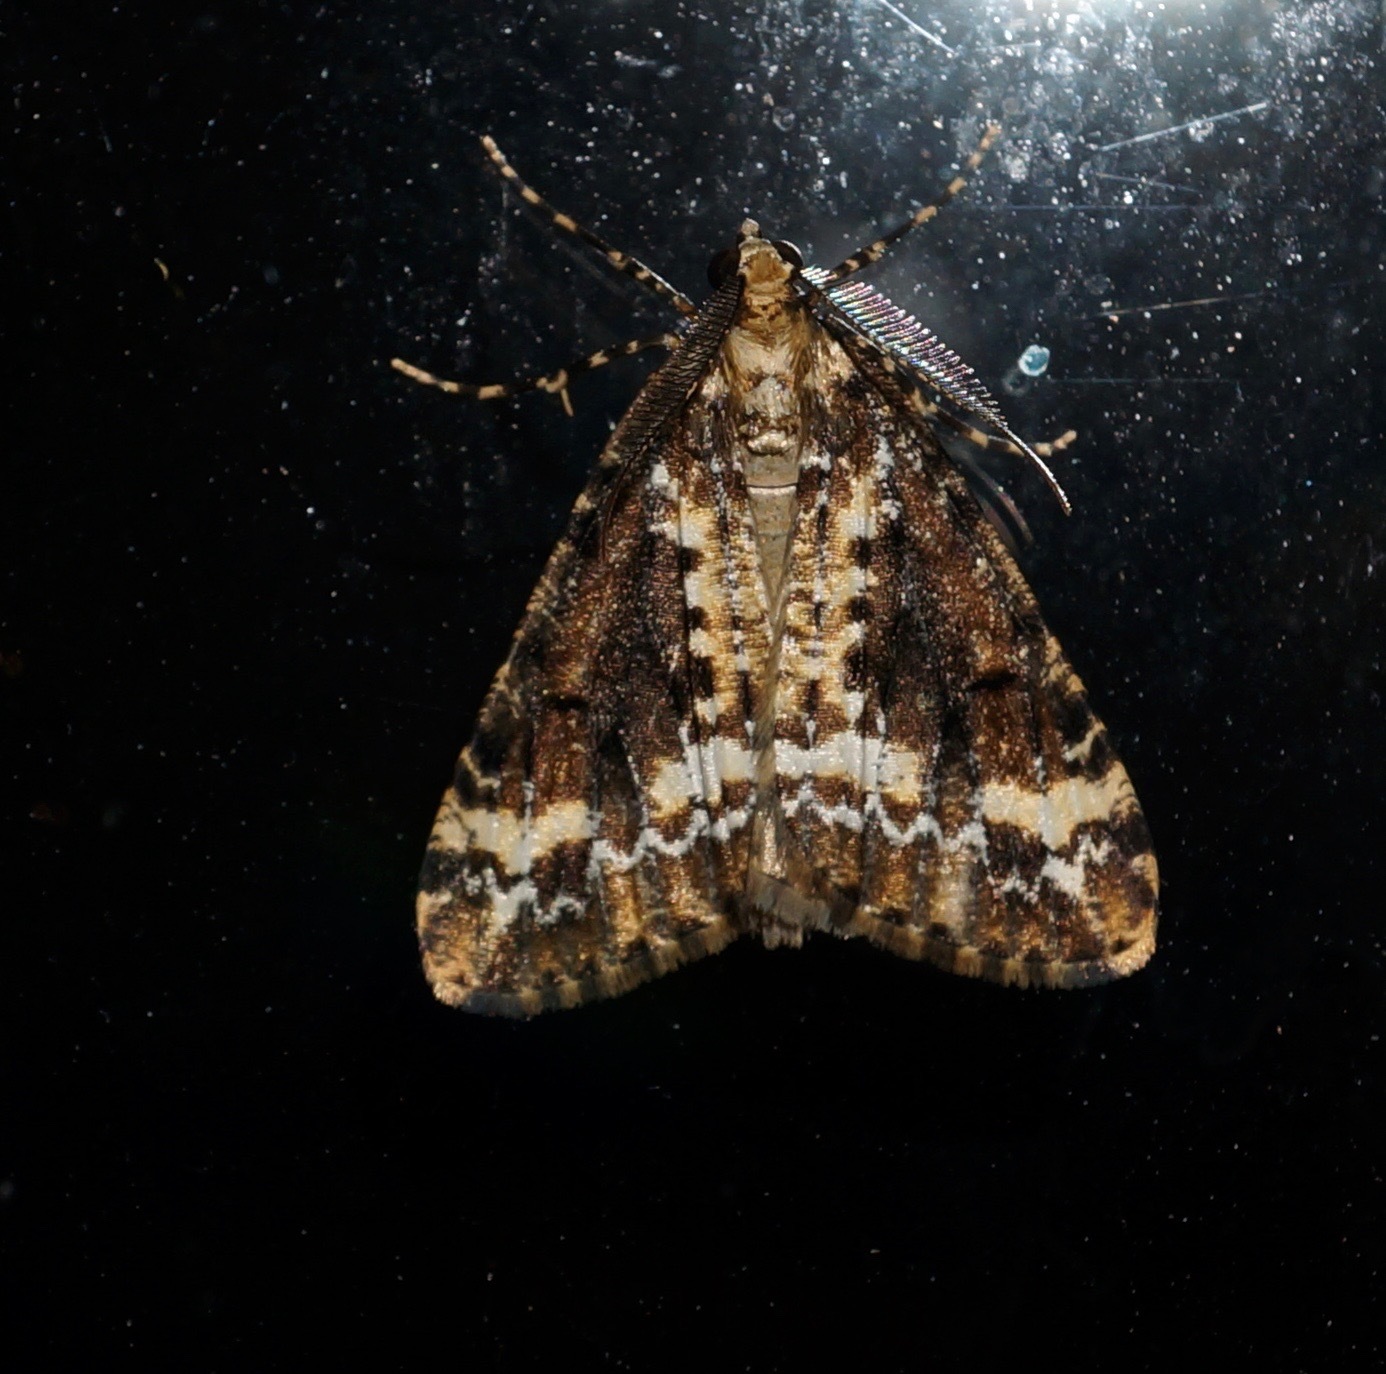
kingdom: Animalia
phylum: Arthropoda
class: Insecta
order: Lepidoptera
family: Geometridae
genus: Pseudocoremia
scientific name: Pseudocoremia leucelaea
